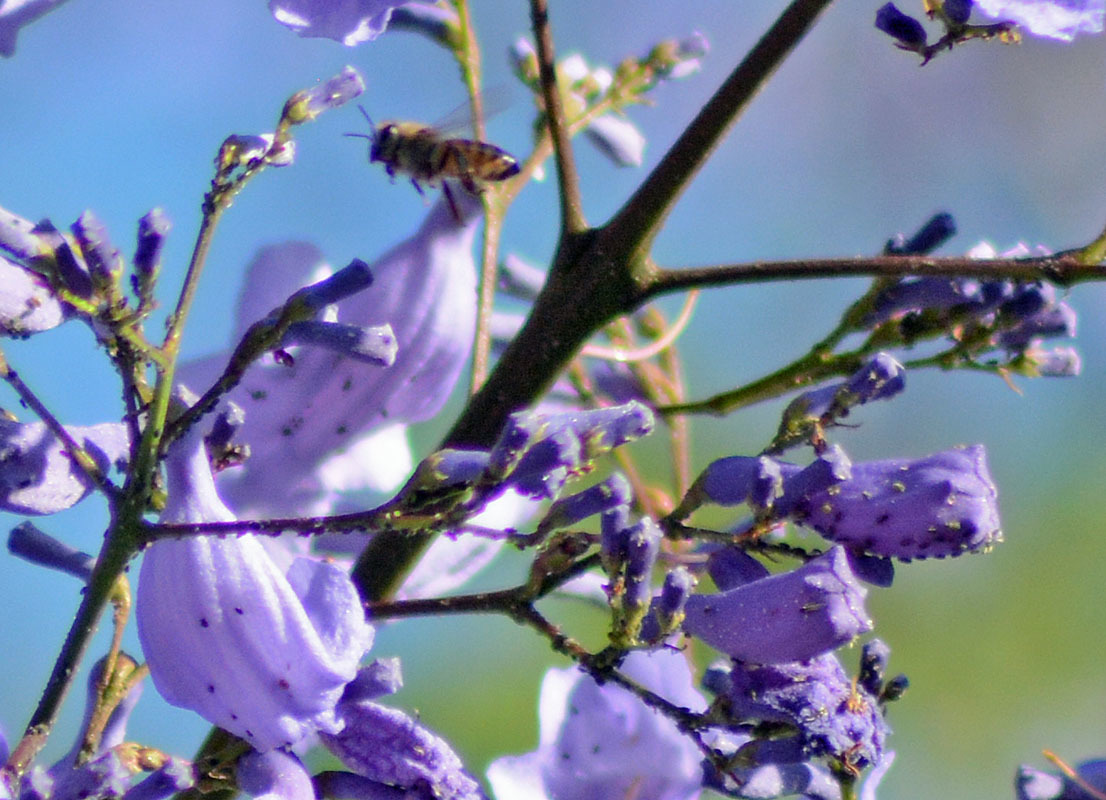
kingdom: Animalia
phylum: Arthropoda
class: Insecta
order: Hymenoptera
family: Apidae
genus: Apis
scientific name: Apis mellifera
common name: Honey bee
